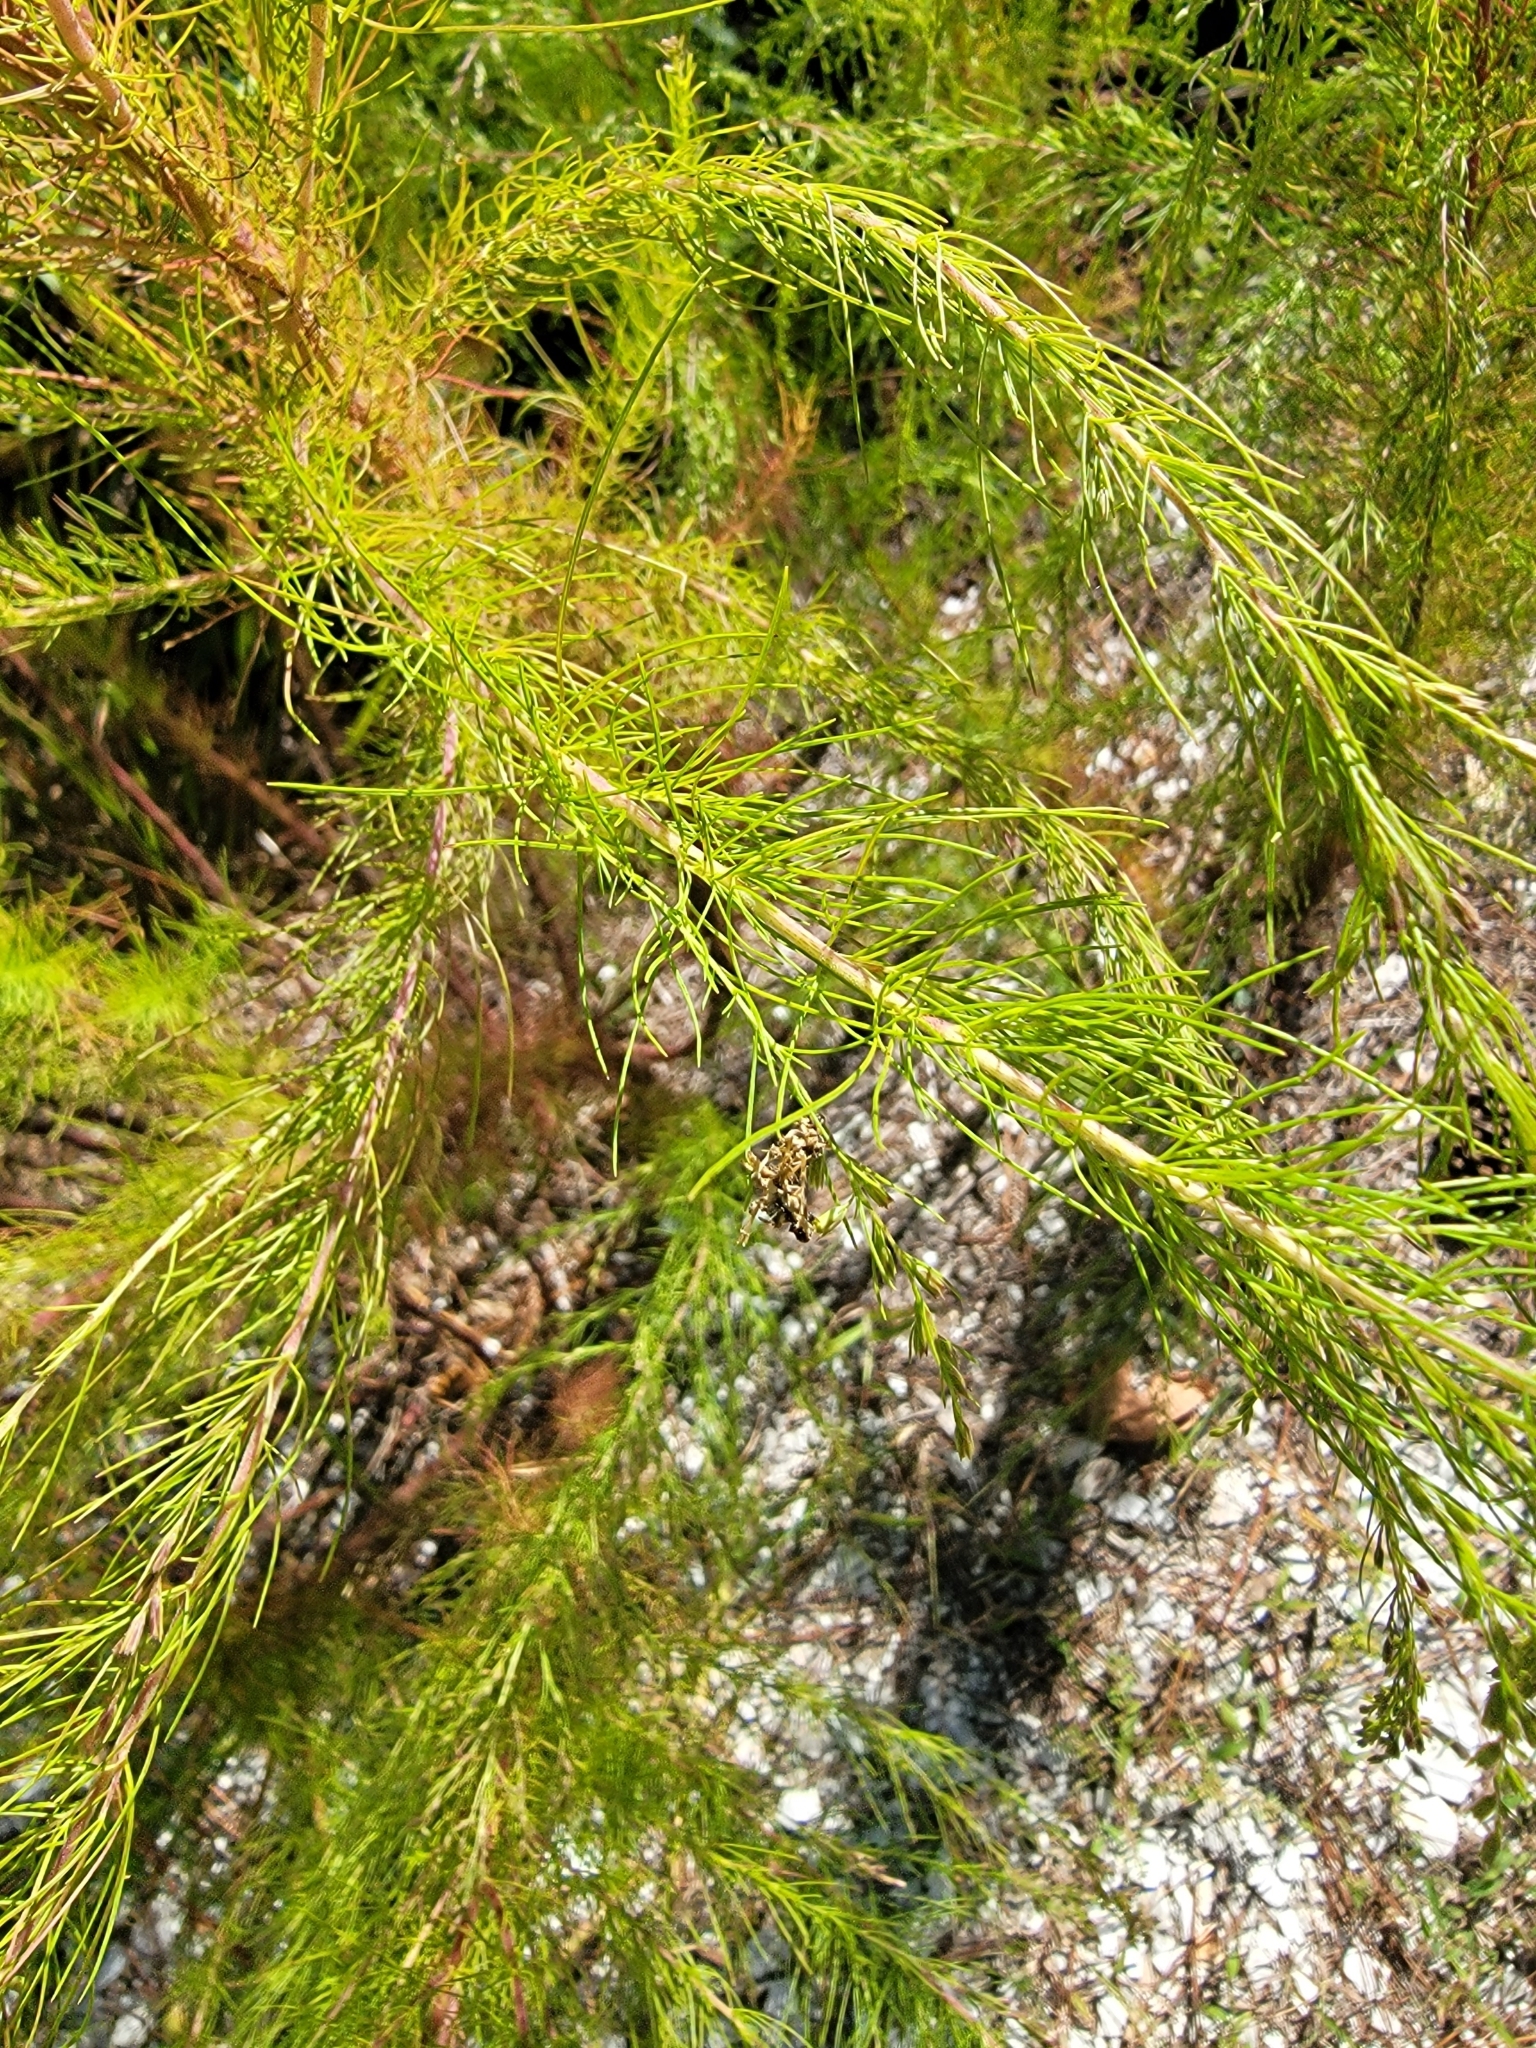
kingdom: Plantae
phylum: Tracheophyta
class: Magnoliopsida
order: Asterales
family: Asteraceae
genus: Eupatorium
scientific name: Eupatorium capillifolium
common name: Dog-fennel
